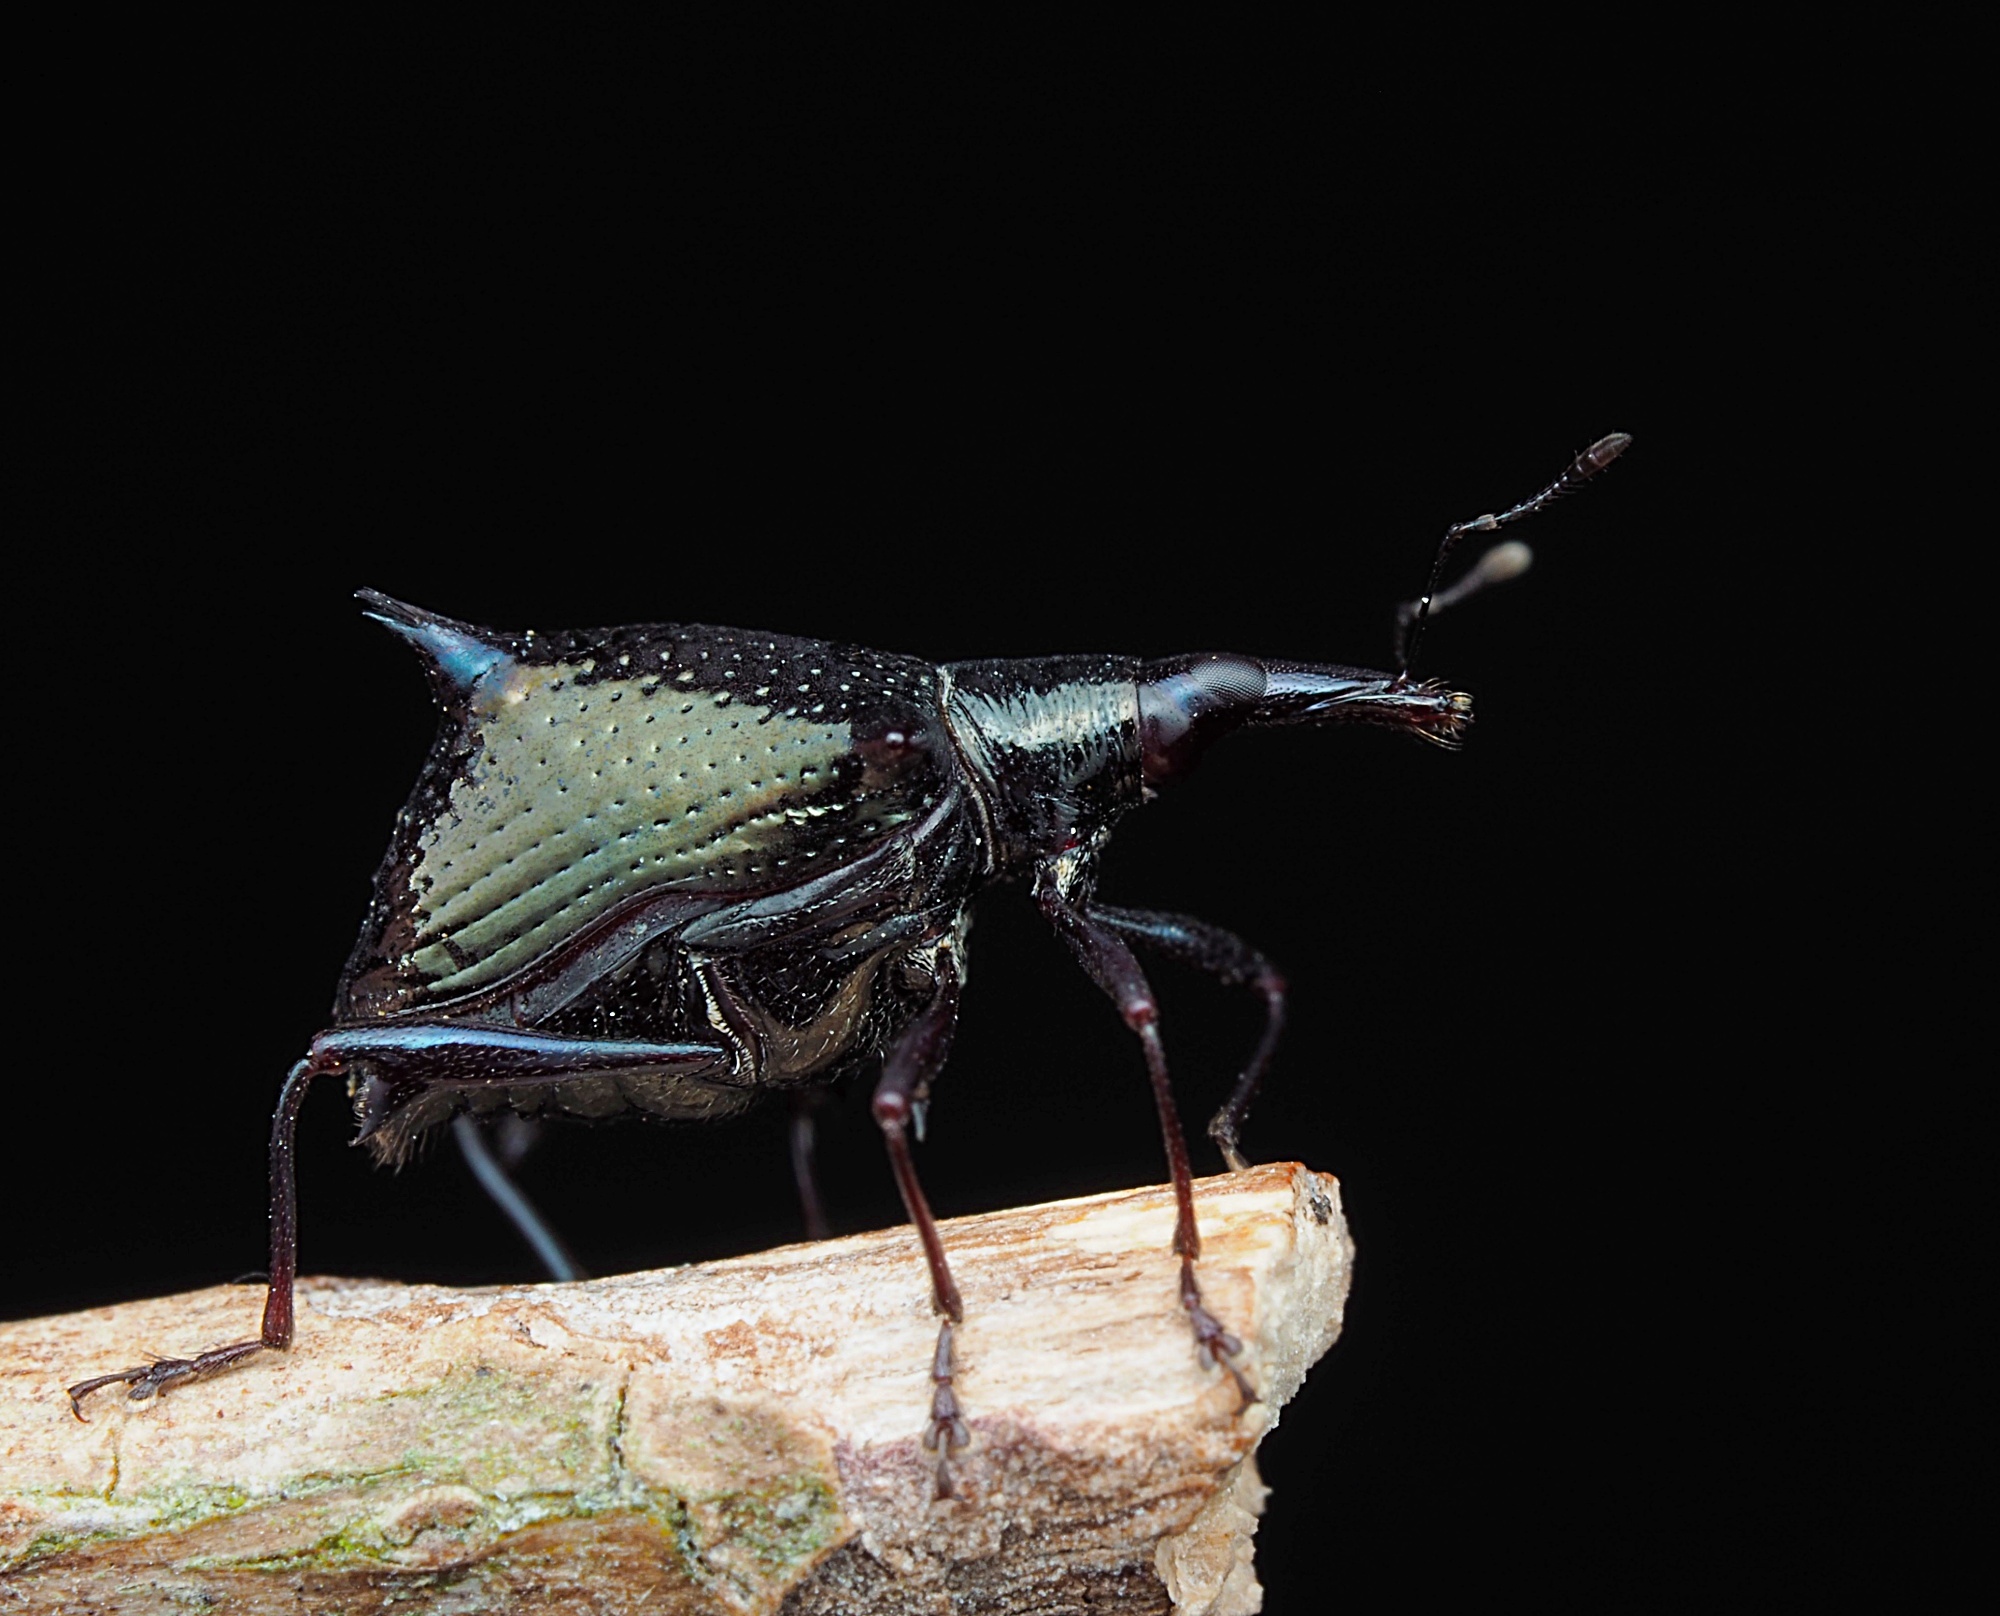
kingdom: Animalia
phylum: Arthropoda
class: Insecta
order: Coleoptera
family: Curculionidae
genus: Scolopterus
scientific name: Scolopterus aequus
